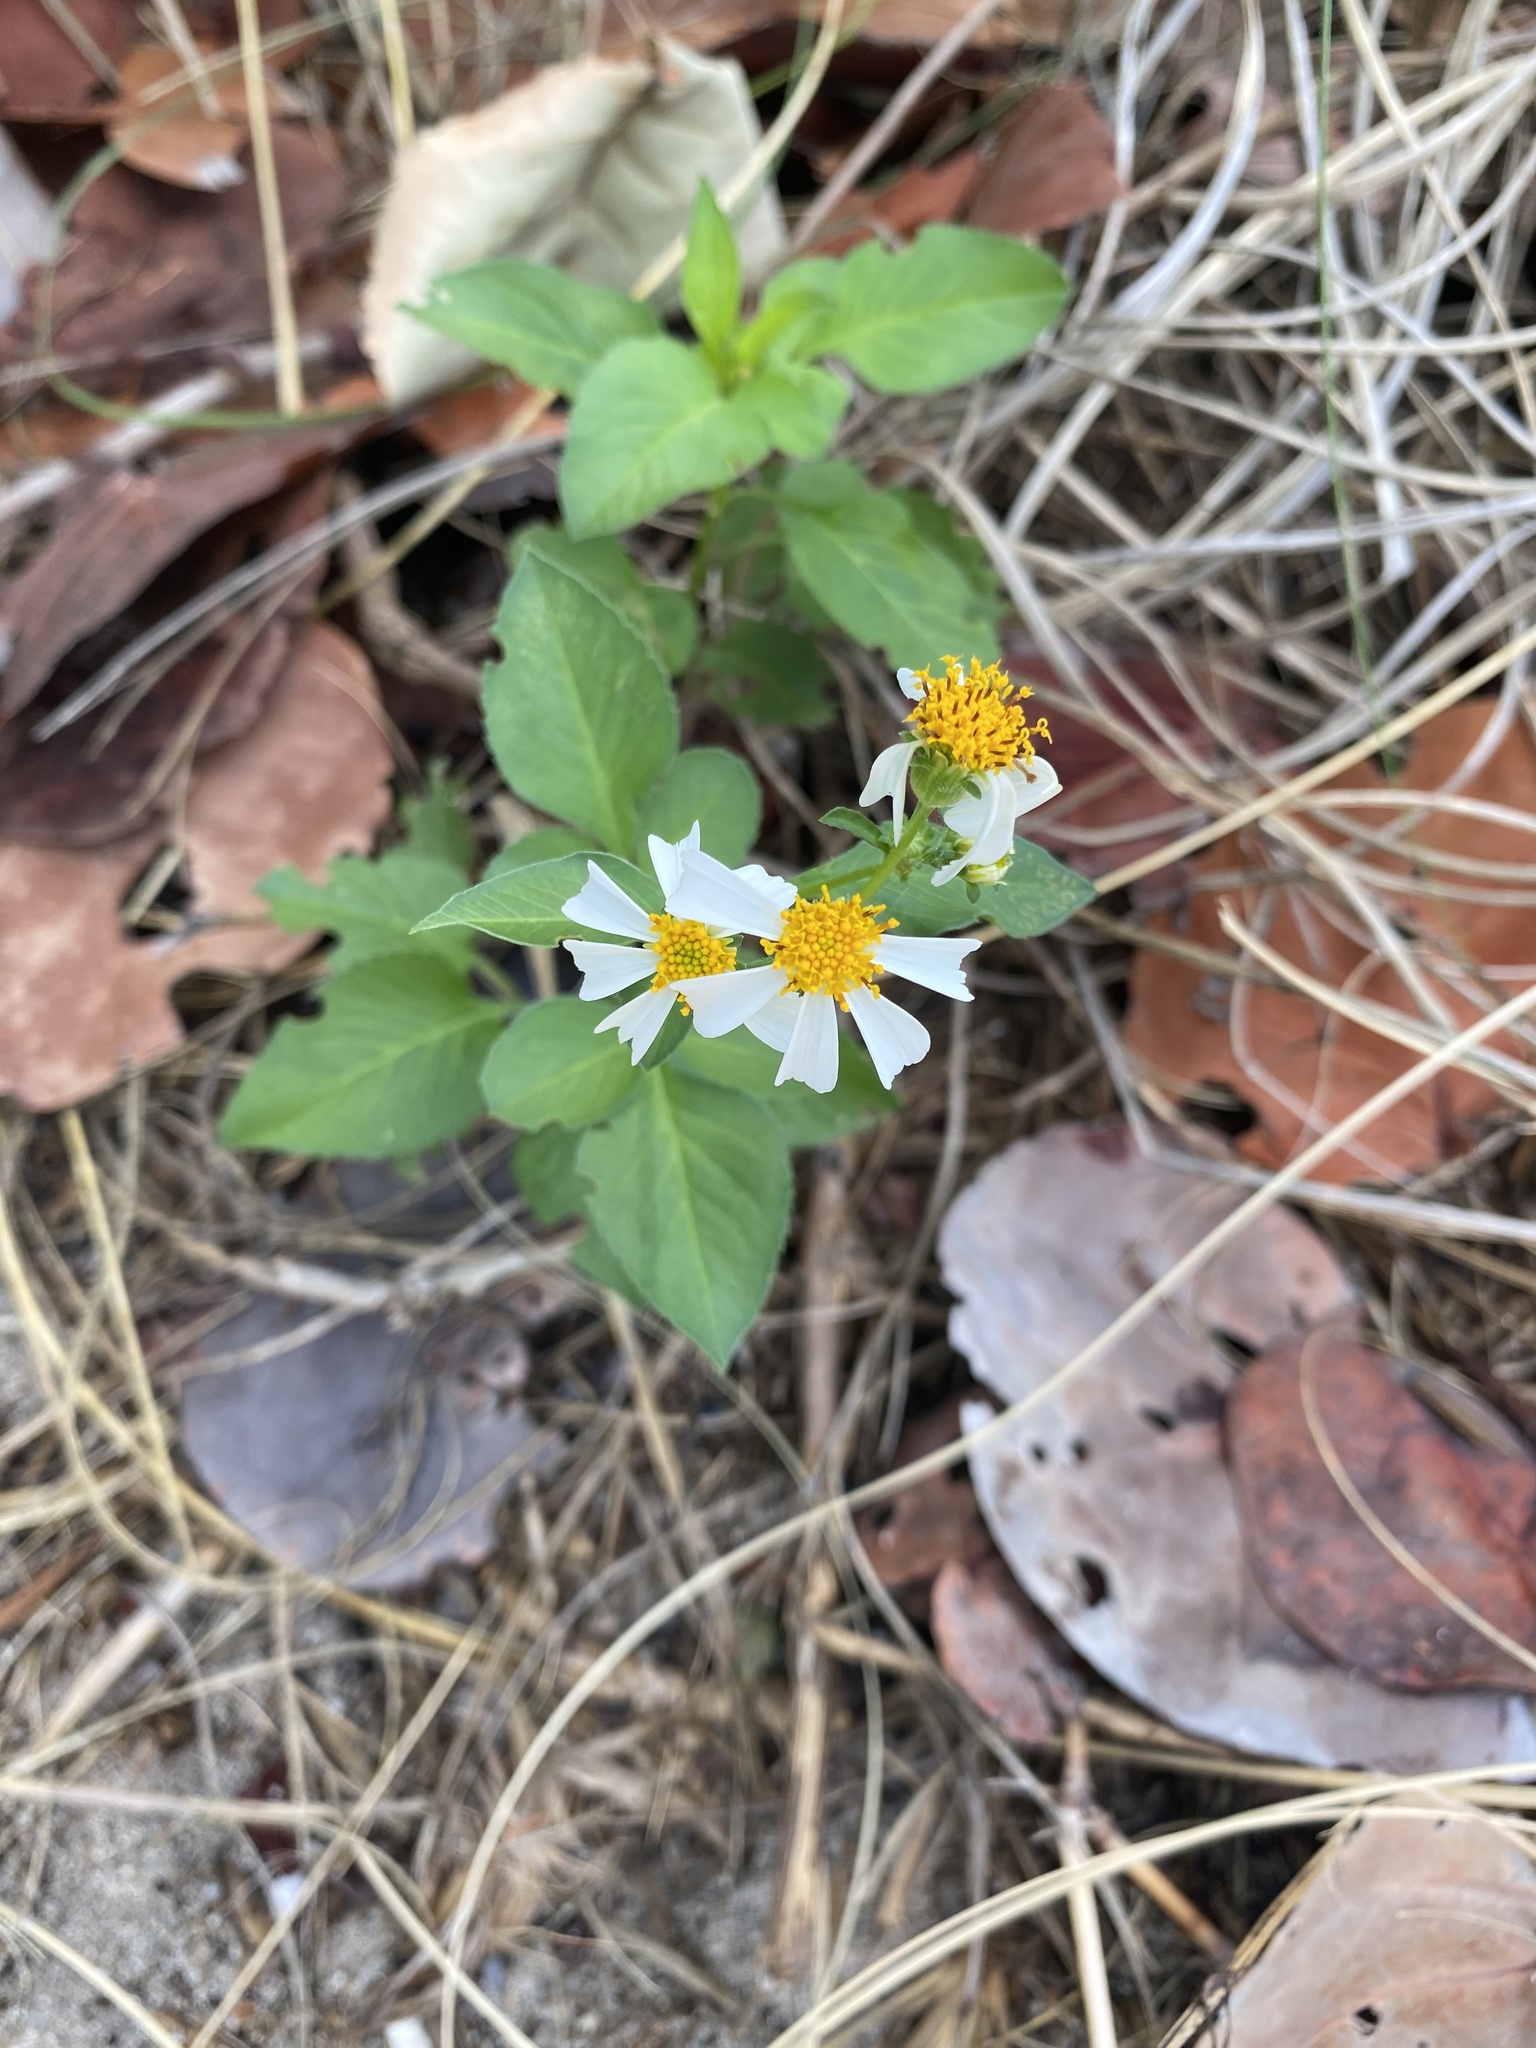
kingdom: Plantae
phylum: Tracheophyta
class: Magnoliopsida
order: Asterales
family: Asteraceae
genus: Bidens
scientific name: Bidens alba
